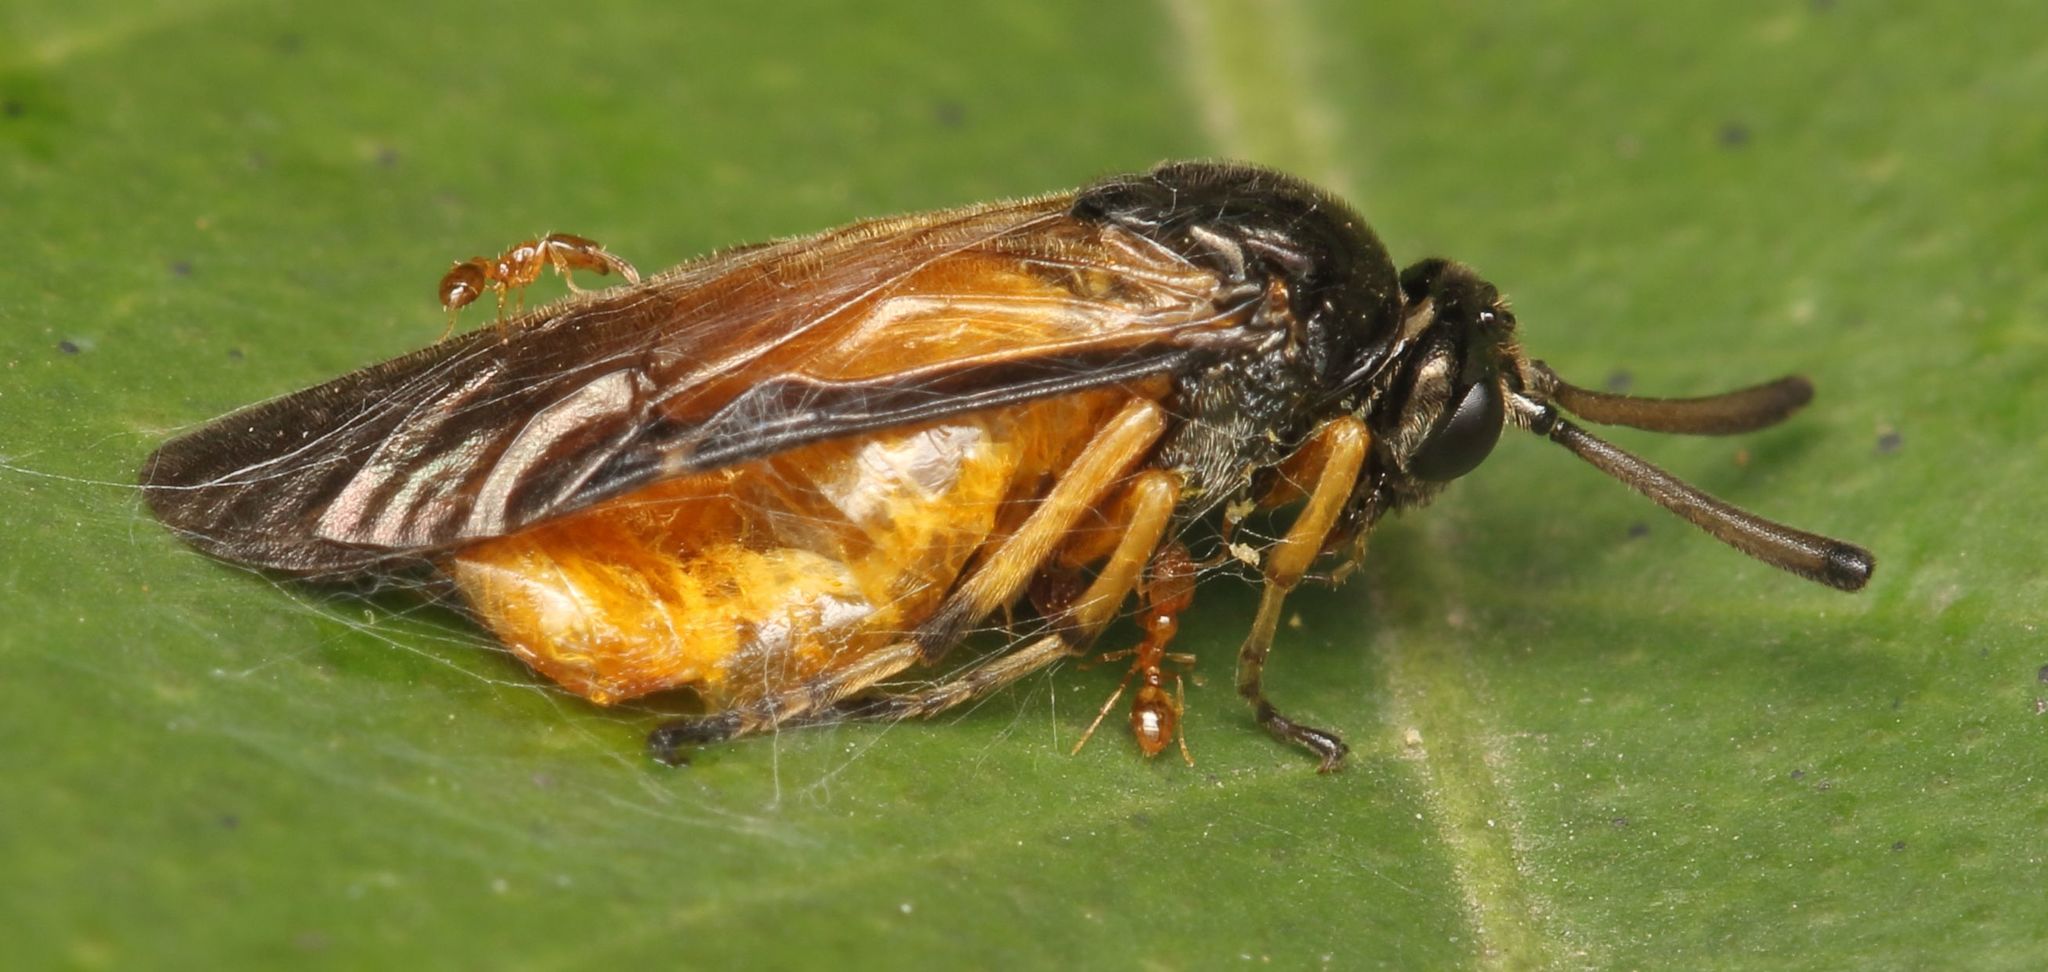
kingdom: Animalia
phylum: Arthropoda
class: Insecta
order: Hymenoptera
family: Formicidae
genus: Solenopsis
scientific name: Solenopsis punctaticeps
